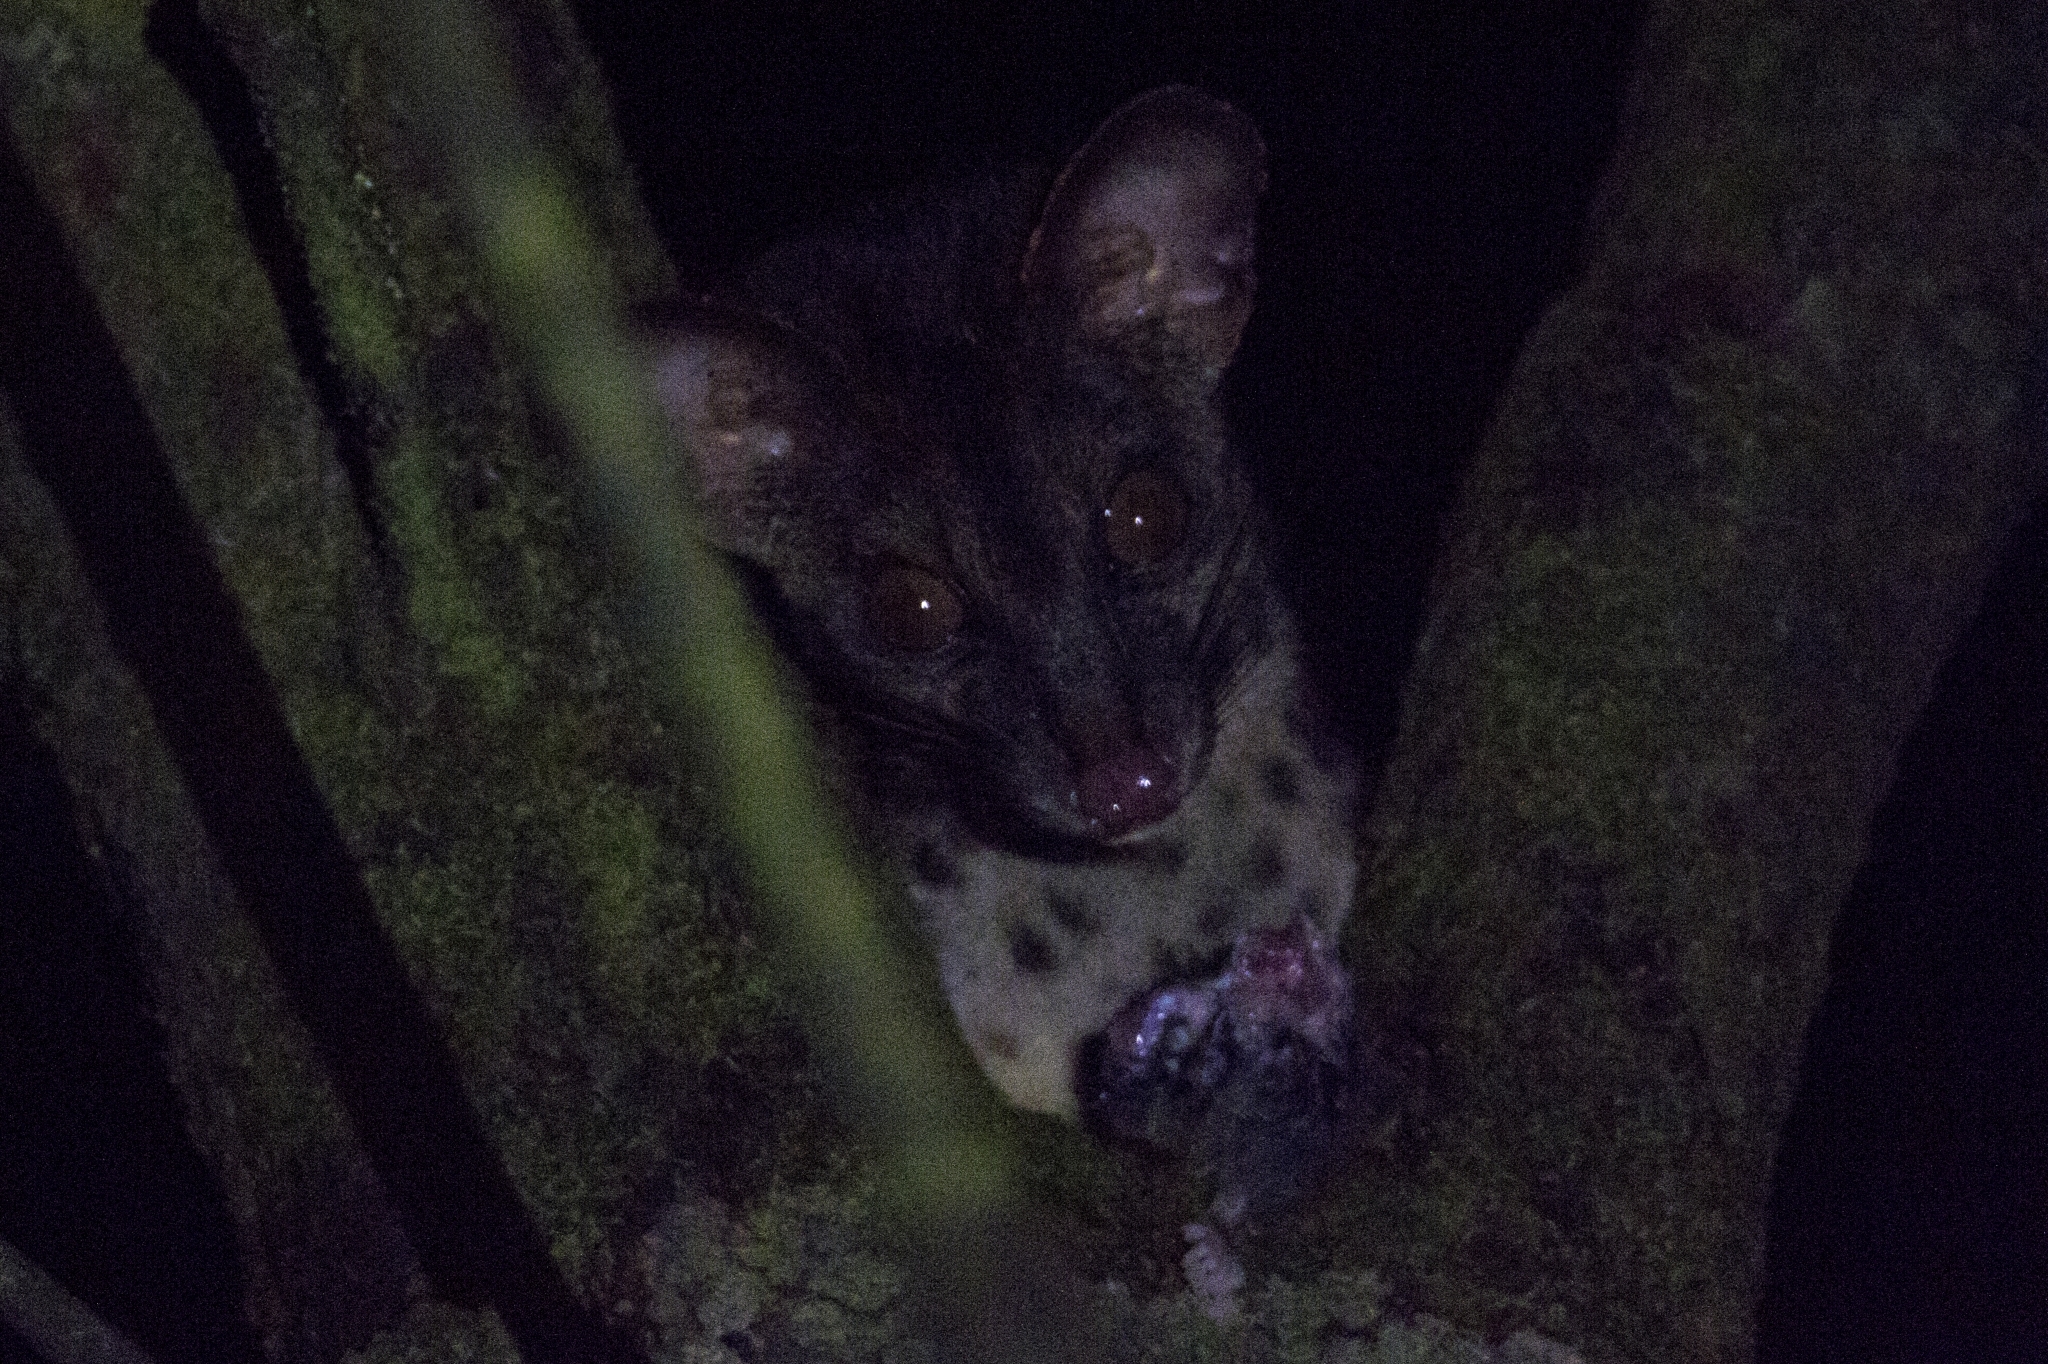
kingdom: Animalia
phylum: Chordata
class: Mammalia
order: Carnivora
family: Viverridae
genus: Poiana
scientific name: Poiana richardsonii
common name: African linsang
